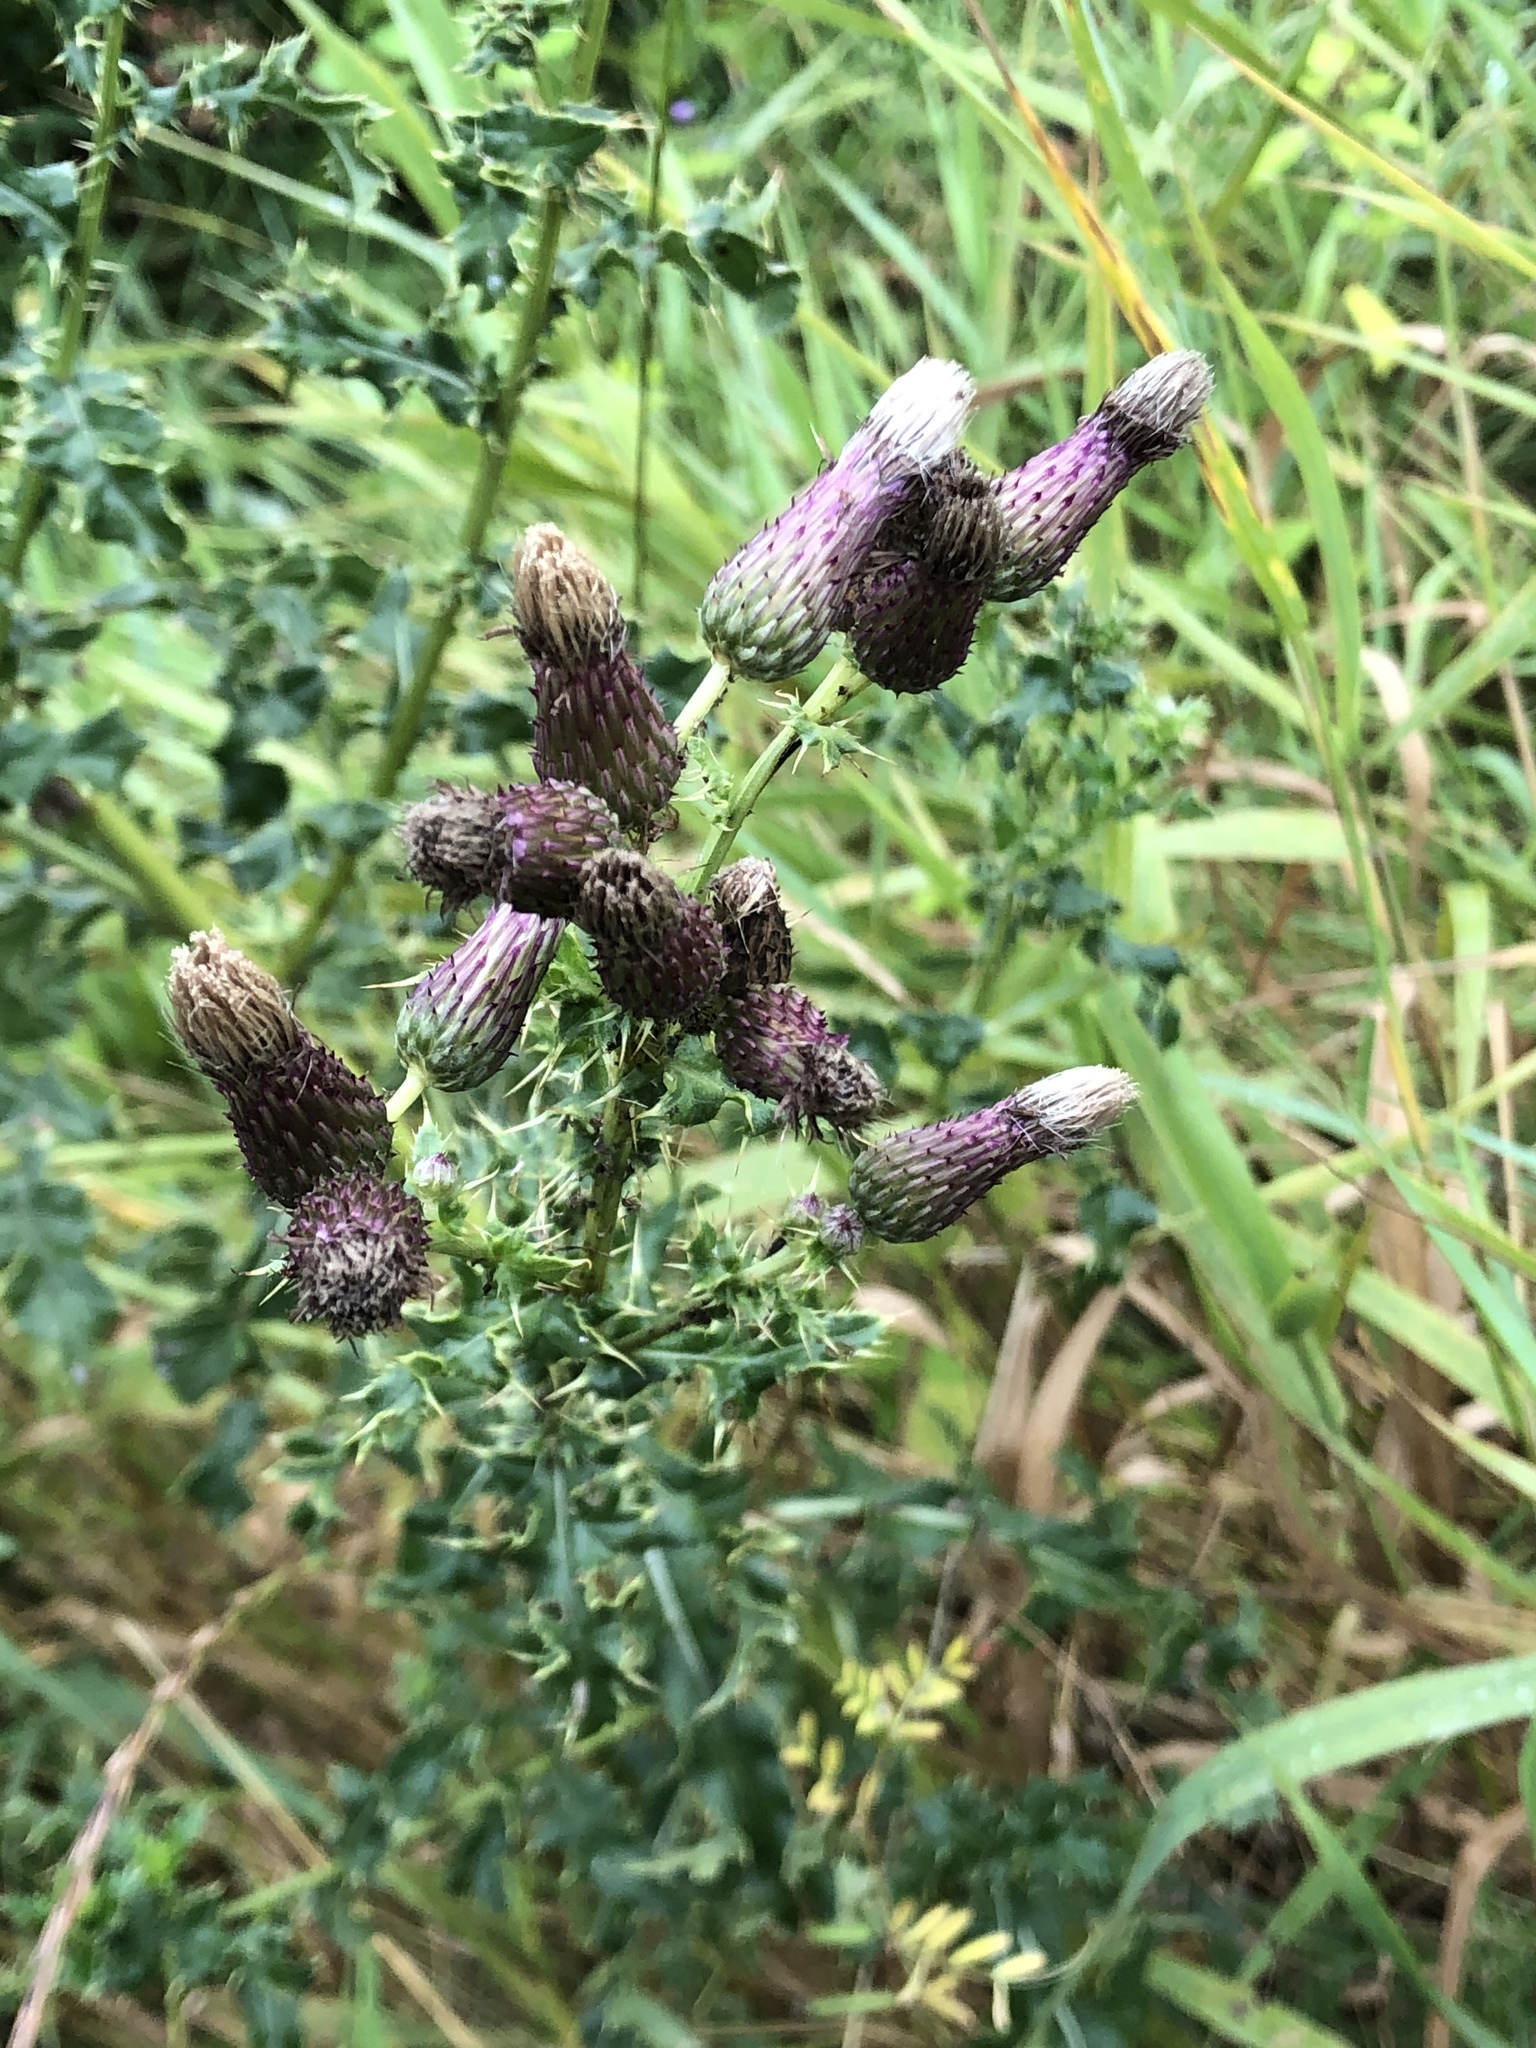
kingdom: Plantae
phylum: Tracheophyta
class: Magnoliopsida
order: Asterales
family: Asteraceae
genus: Cirsium
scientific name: Cirsium arvense
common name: Creeping thistle
